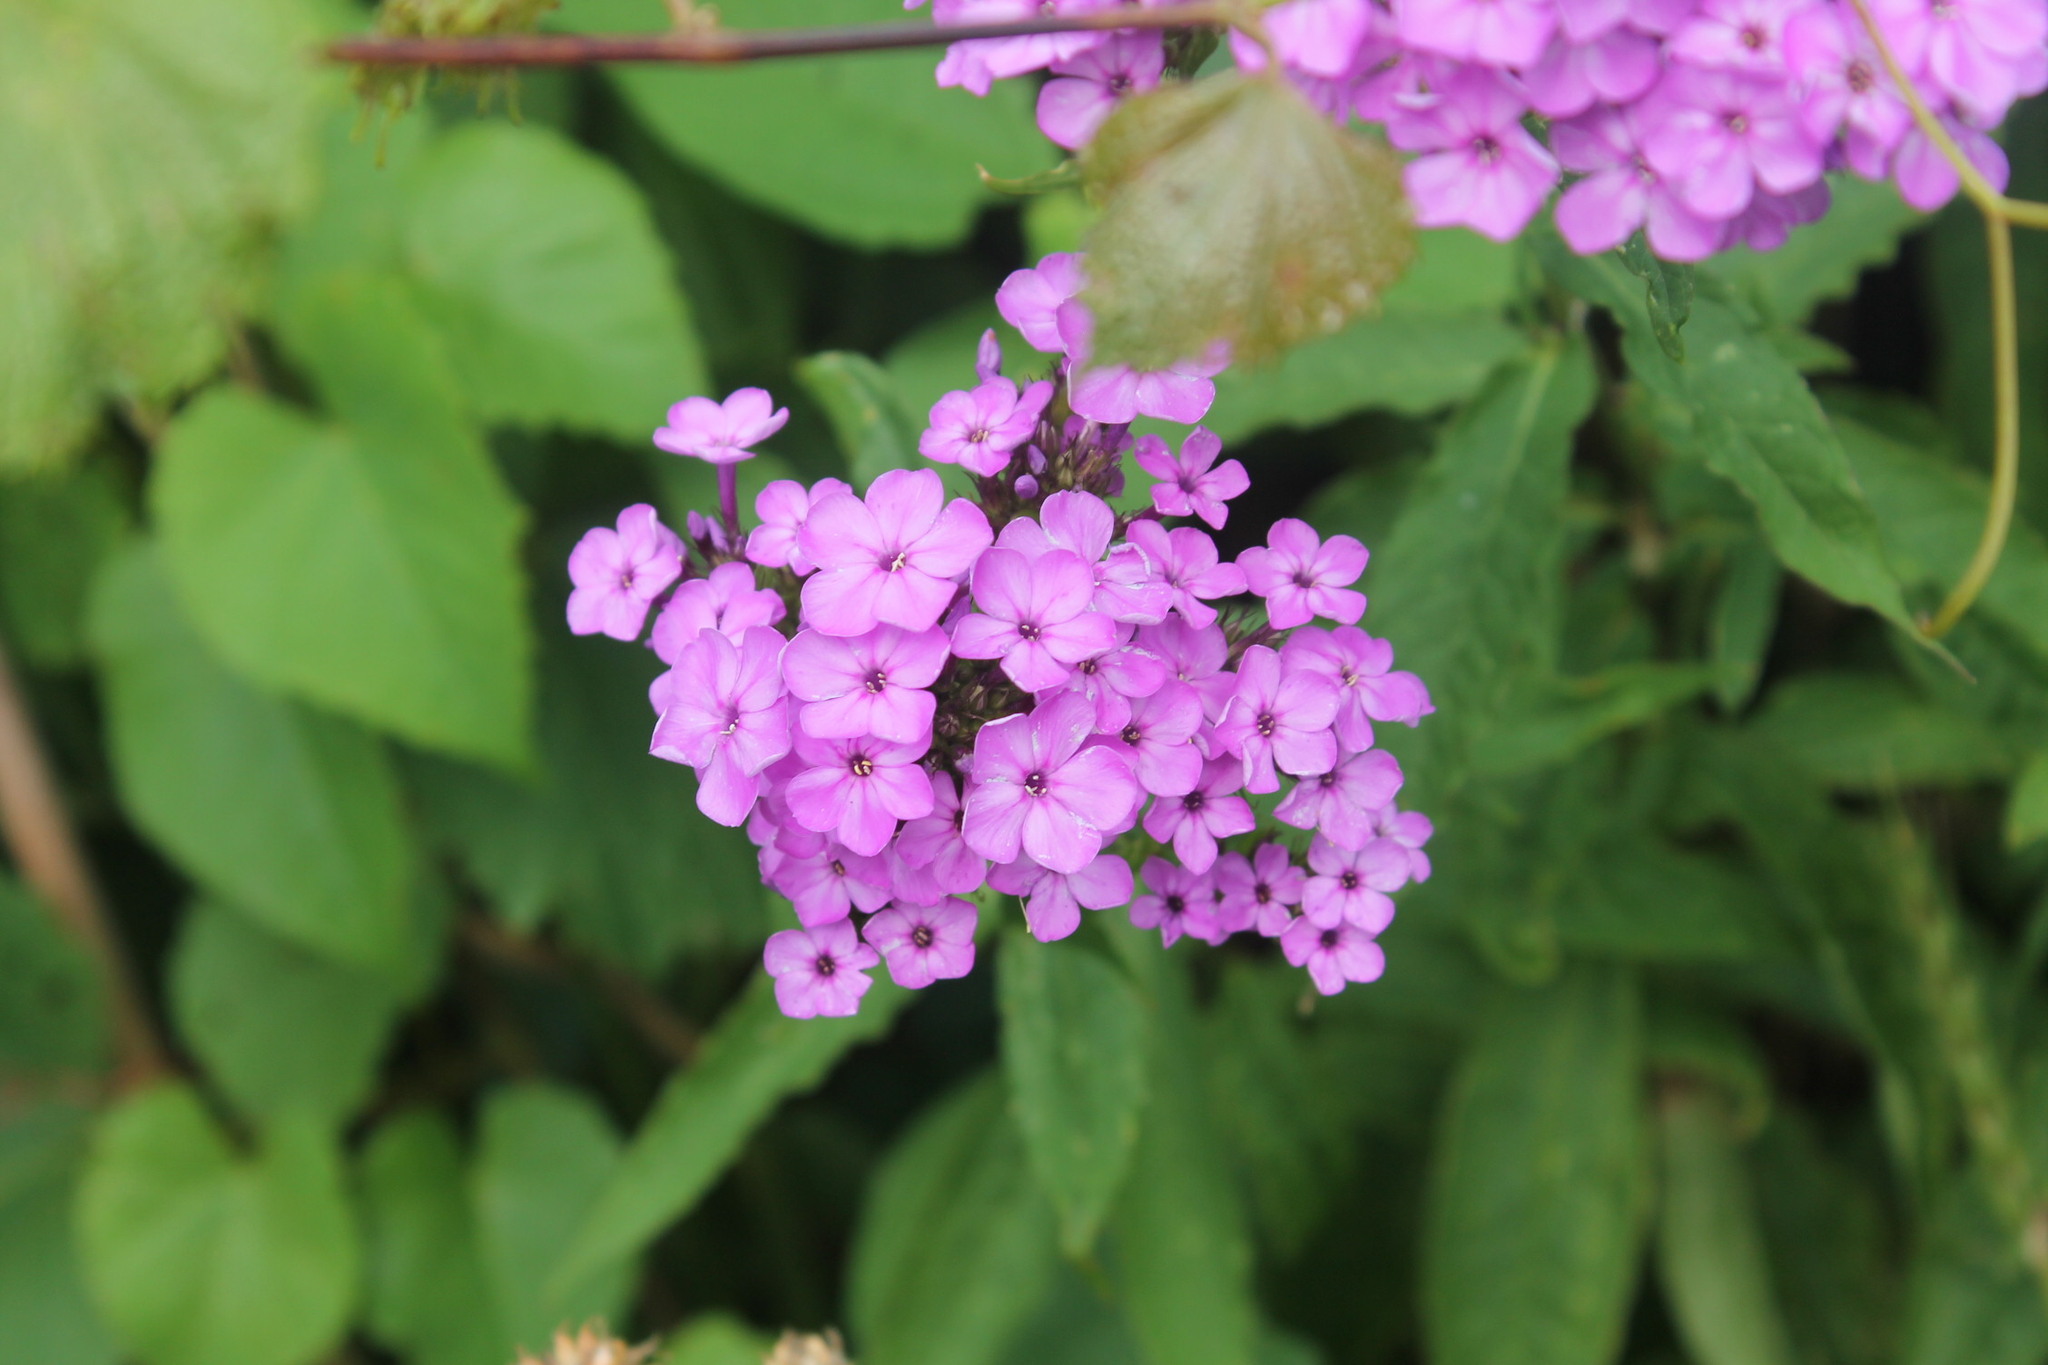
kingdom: Plantae
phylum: Tracheophyta
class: Magnoliopsida
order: Ericales
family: Polemoniaceae
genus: Phlox
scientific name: Phlox paniculata
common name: Fall phlox
